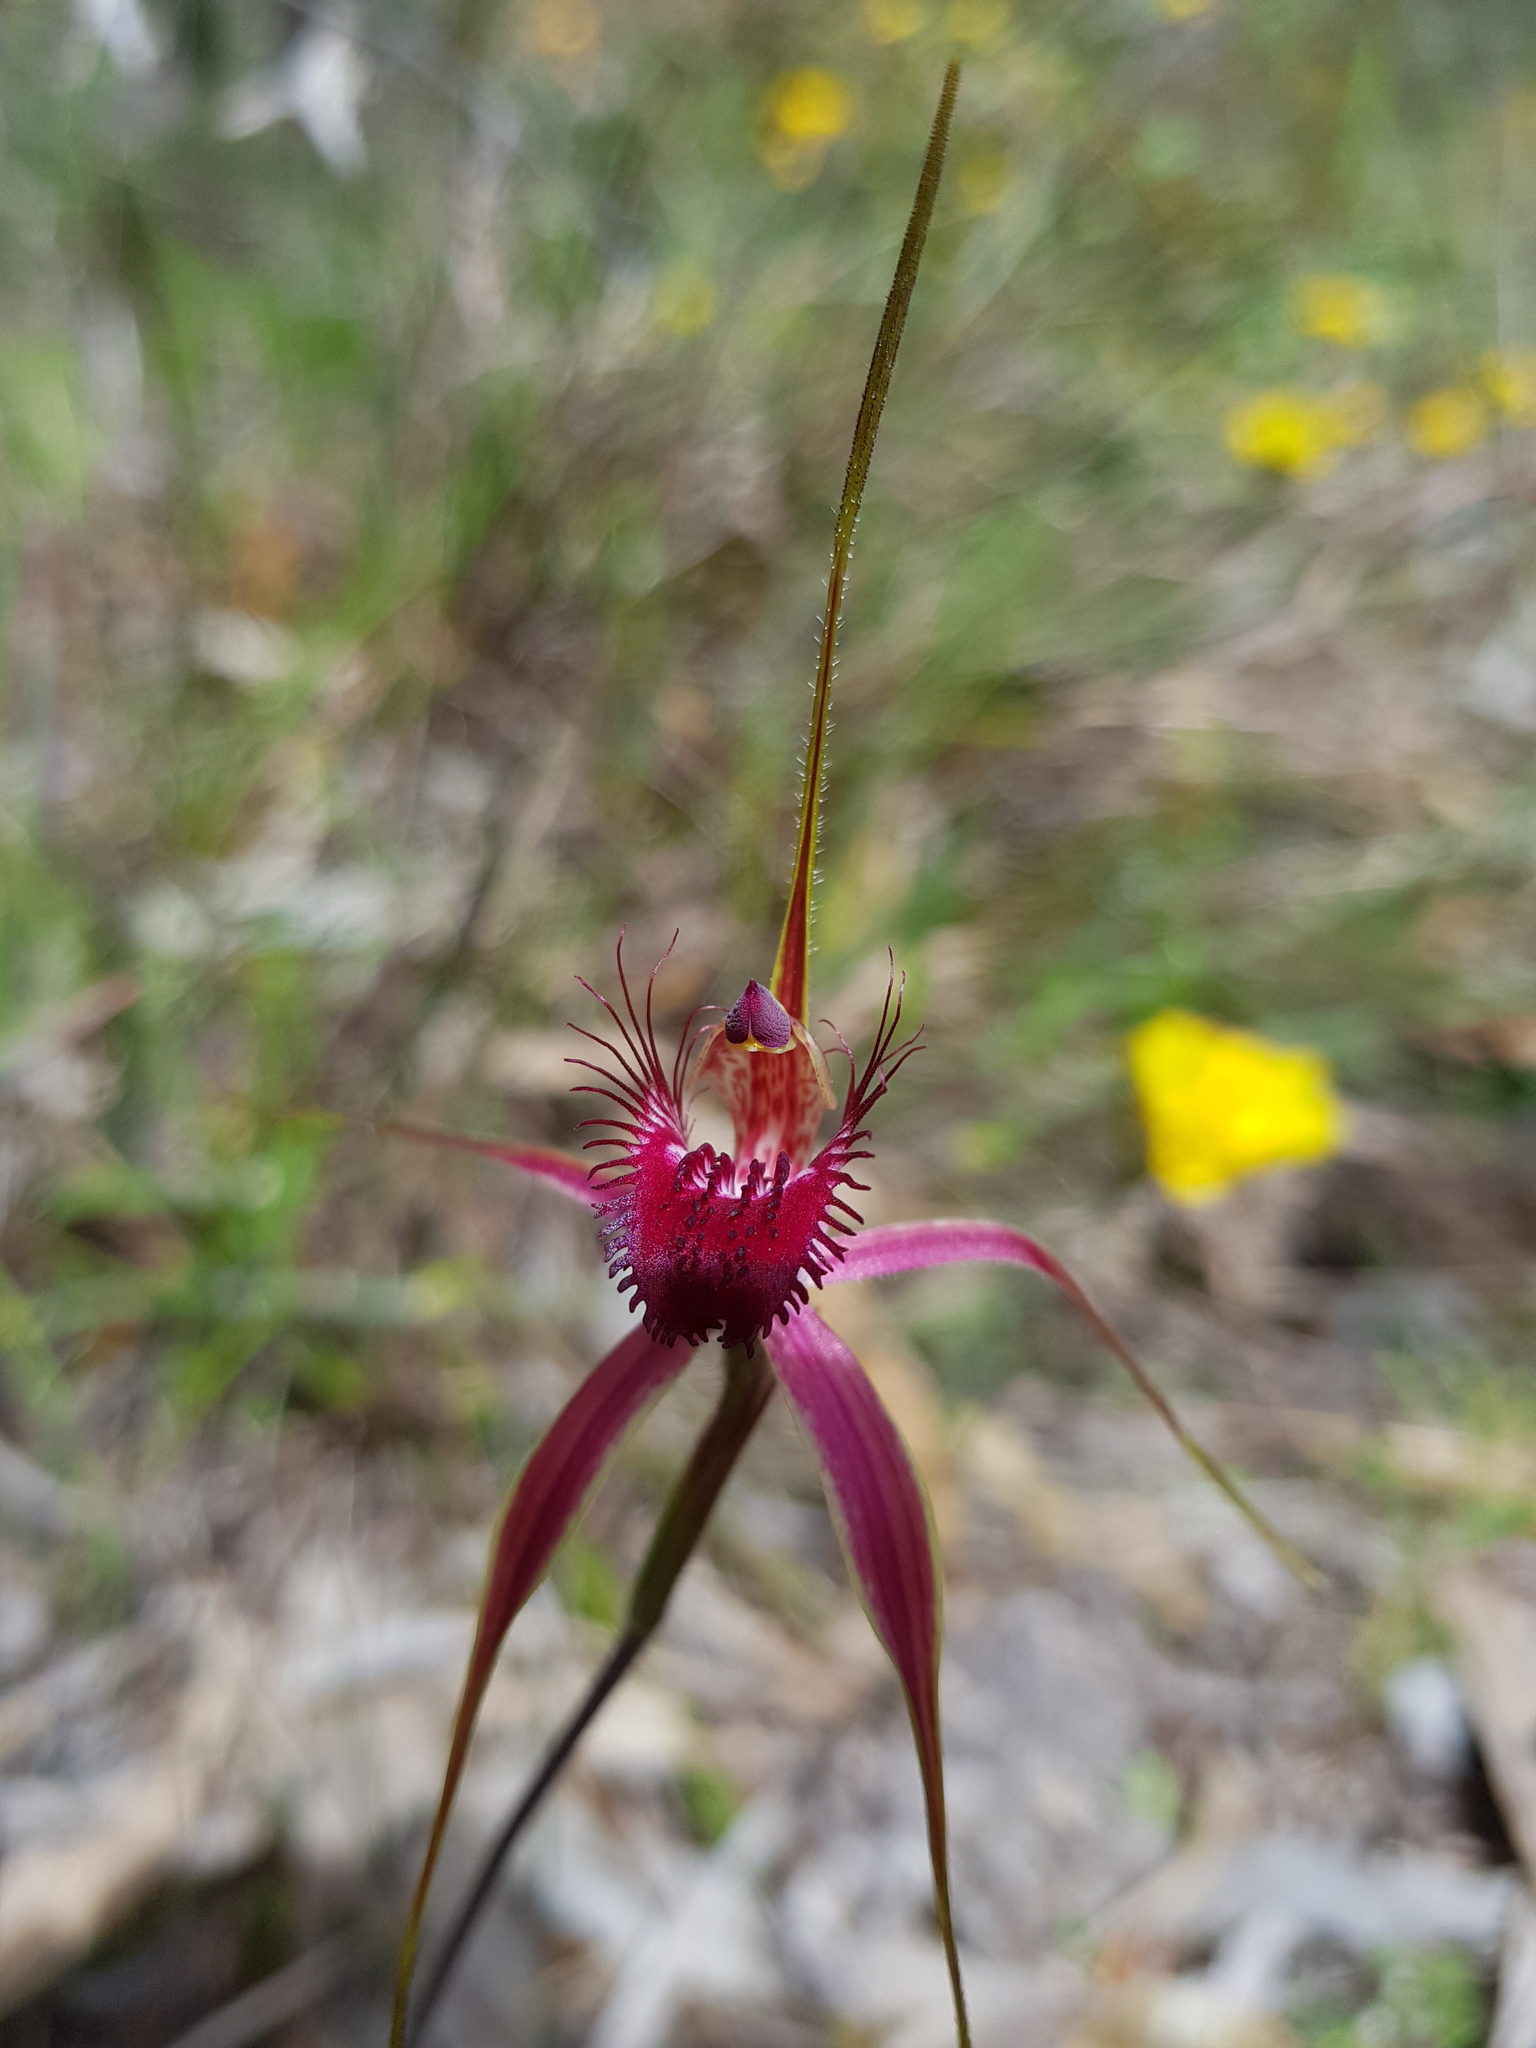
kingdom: Plantae
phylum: Tracheophyta
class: Liliopsida
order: Asparagales
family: Orchidaceae
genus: Caladenia
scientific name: Caladenia arenicola
